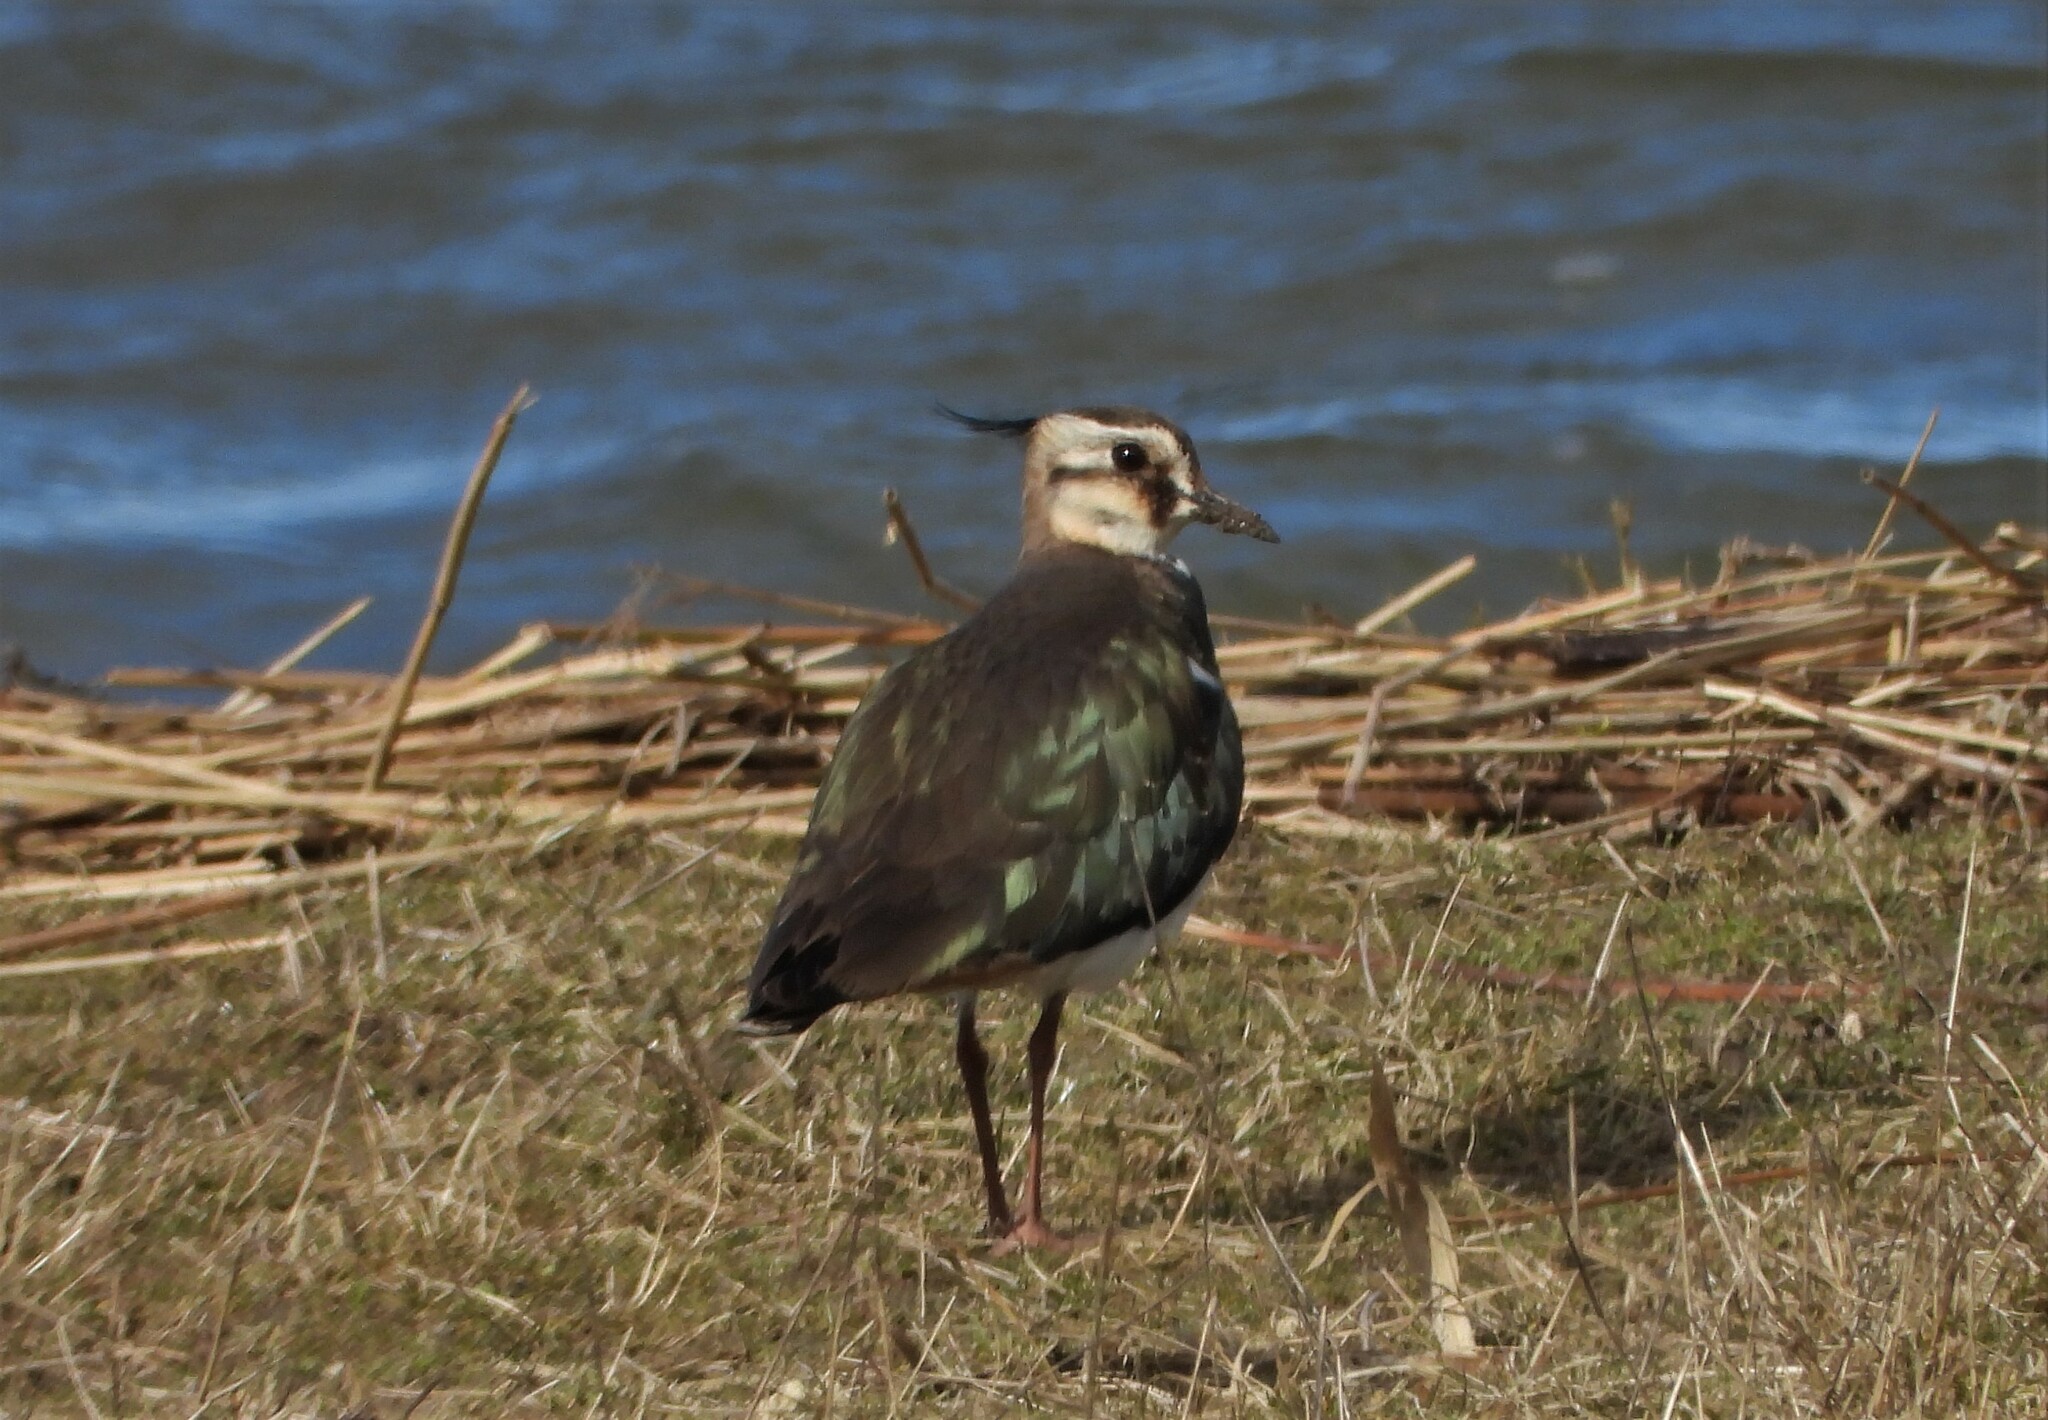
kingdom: Animalia
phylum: Chordata
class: Aves
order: Charadriiformes
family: Charadriidae
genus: Vanellus
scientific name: Vanellus vanellus
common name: Northern lapwing
